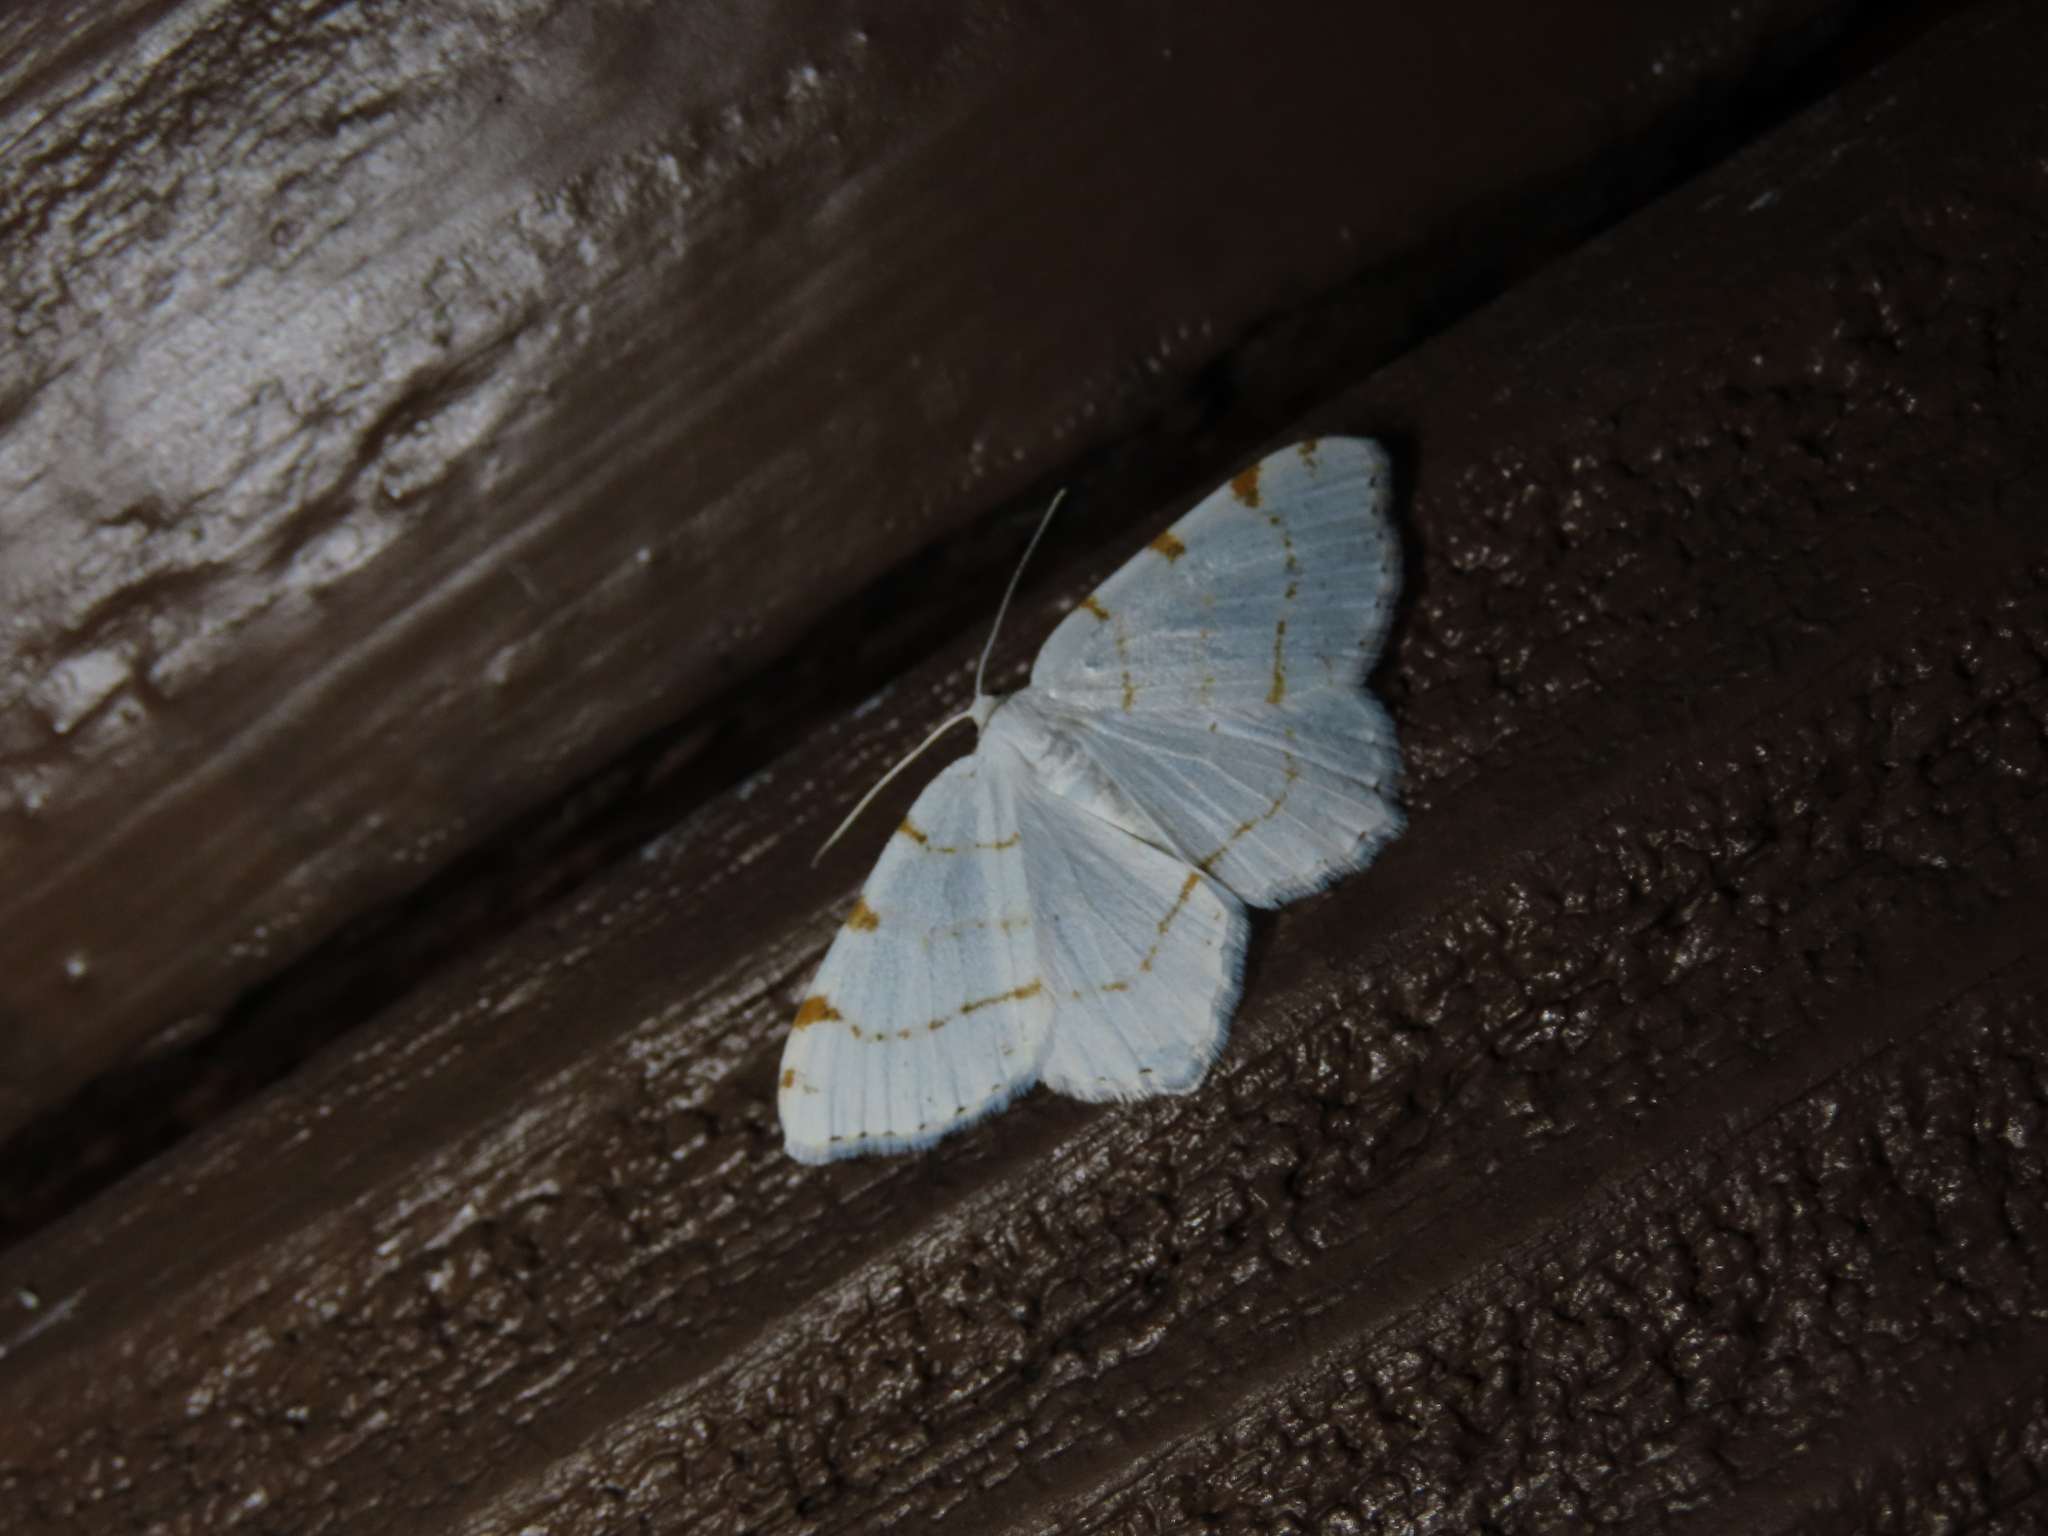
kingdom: Animalia
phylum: Arthropoda
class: Insecta
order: Lepidoptera
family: Geometridae
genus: Macaria
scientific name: Macaria pustularia
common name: Lesser maple spanworm moth
